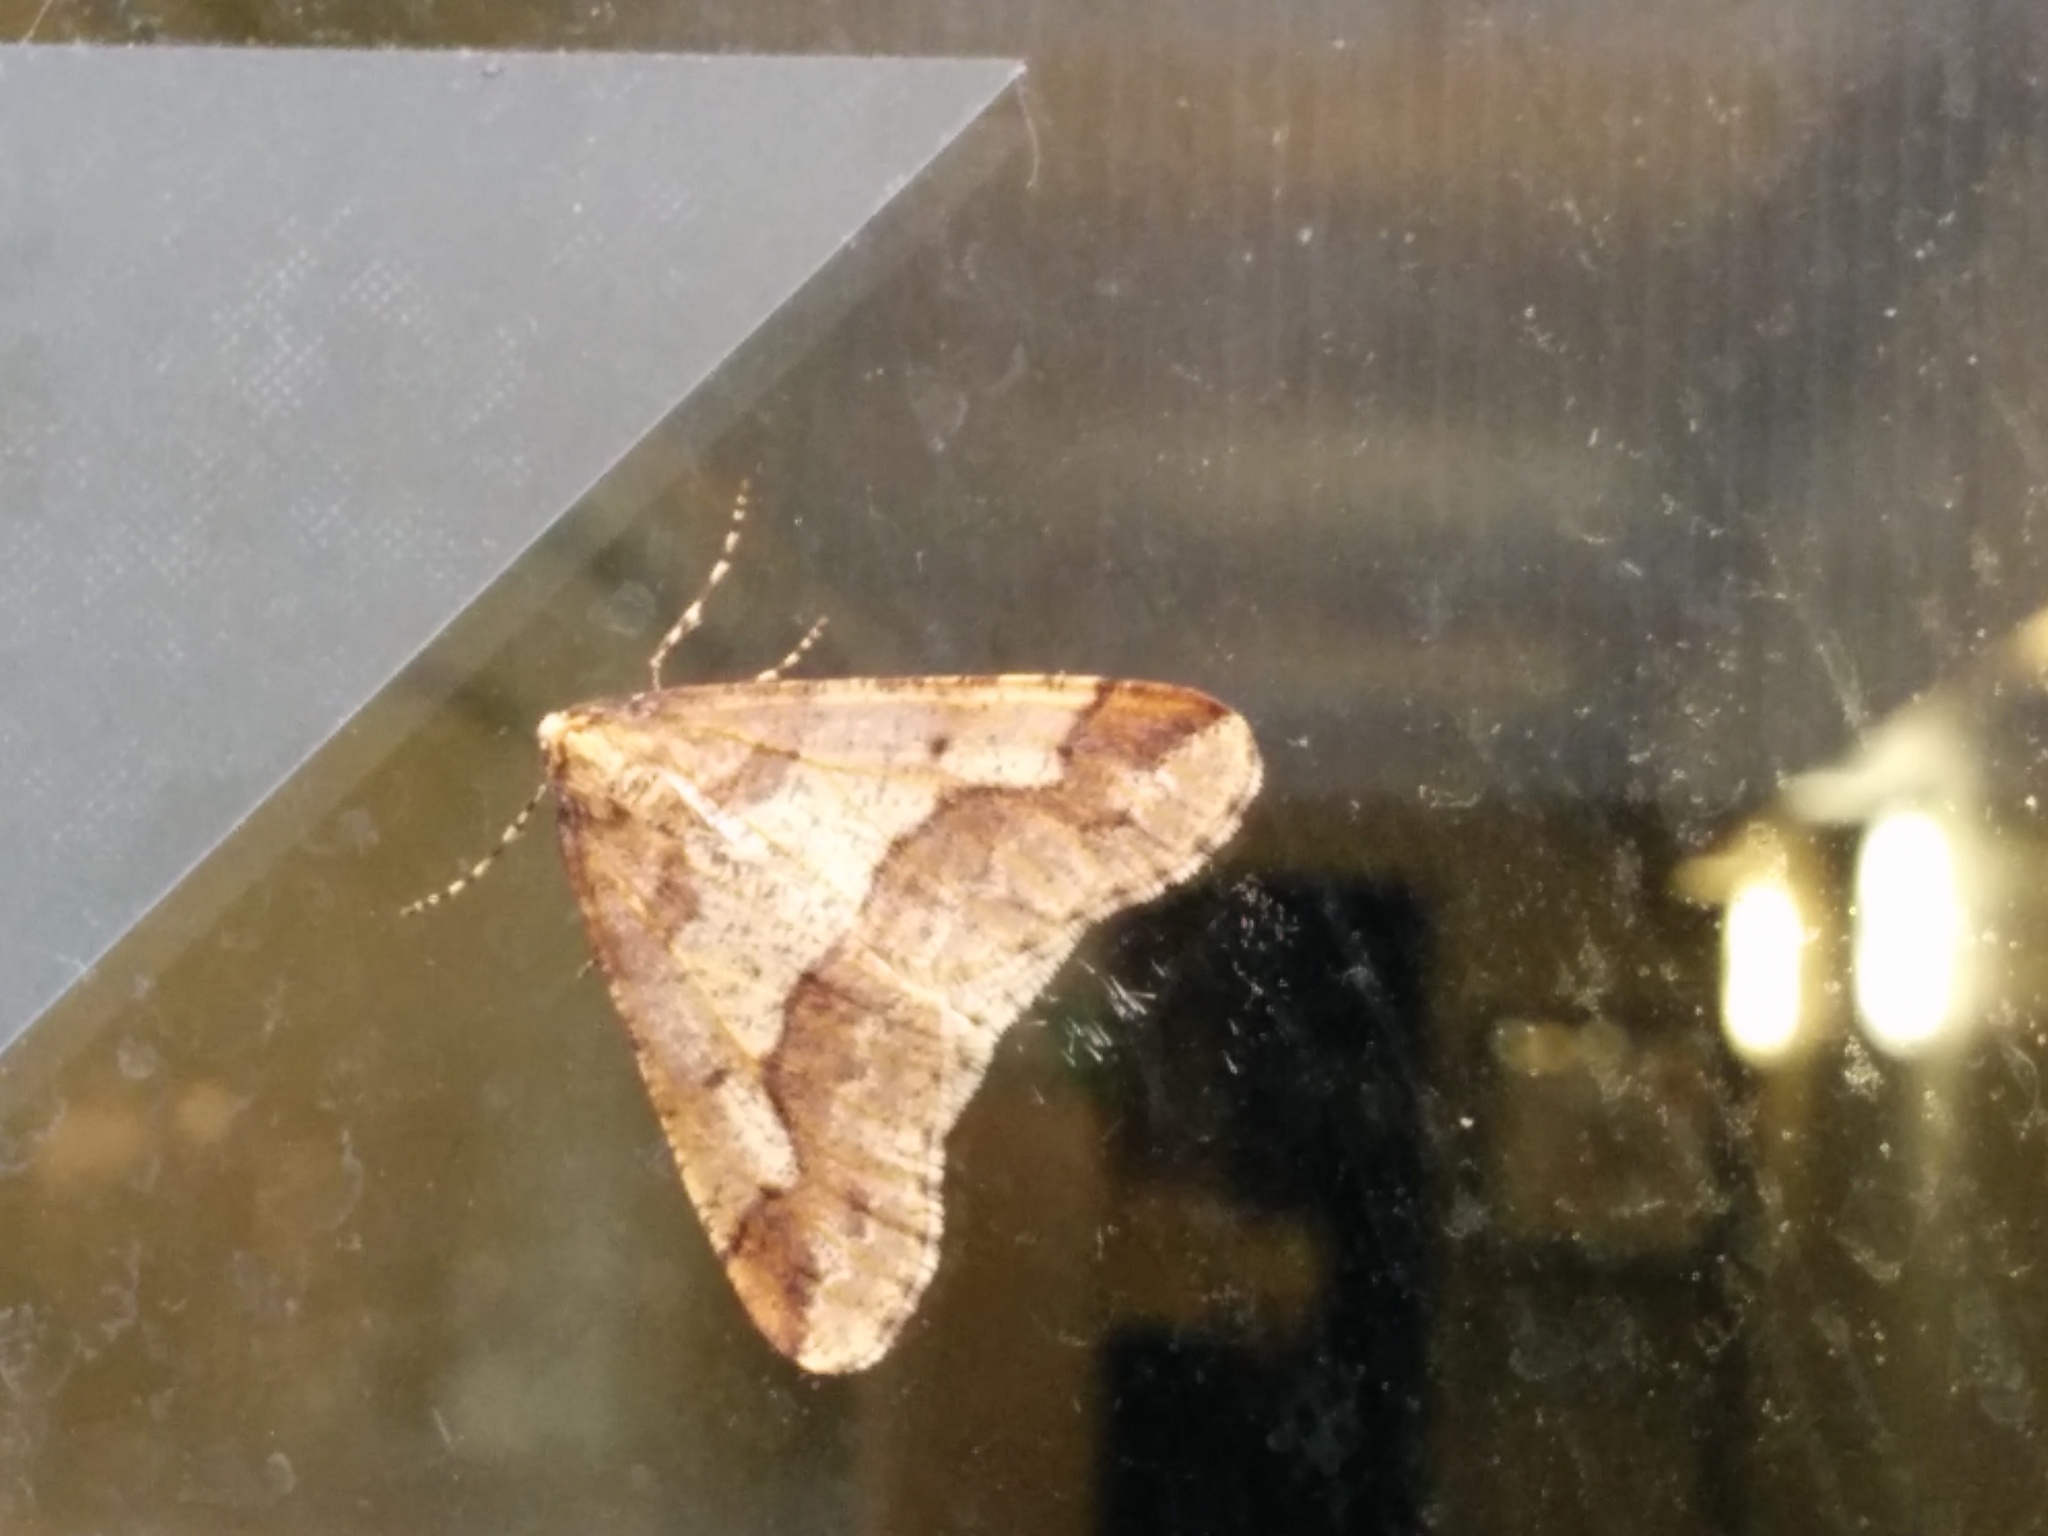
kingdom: Animalia
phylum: Arthropoda
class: Insecta
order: Lepidoptera
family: Geometridae
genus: Erannis
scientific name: Erannis defoliaria
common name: Mottled umber
